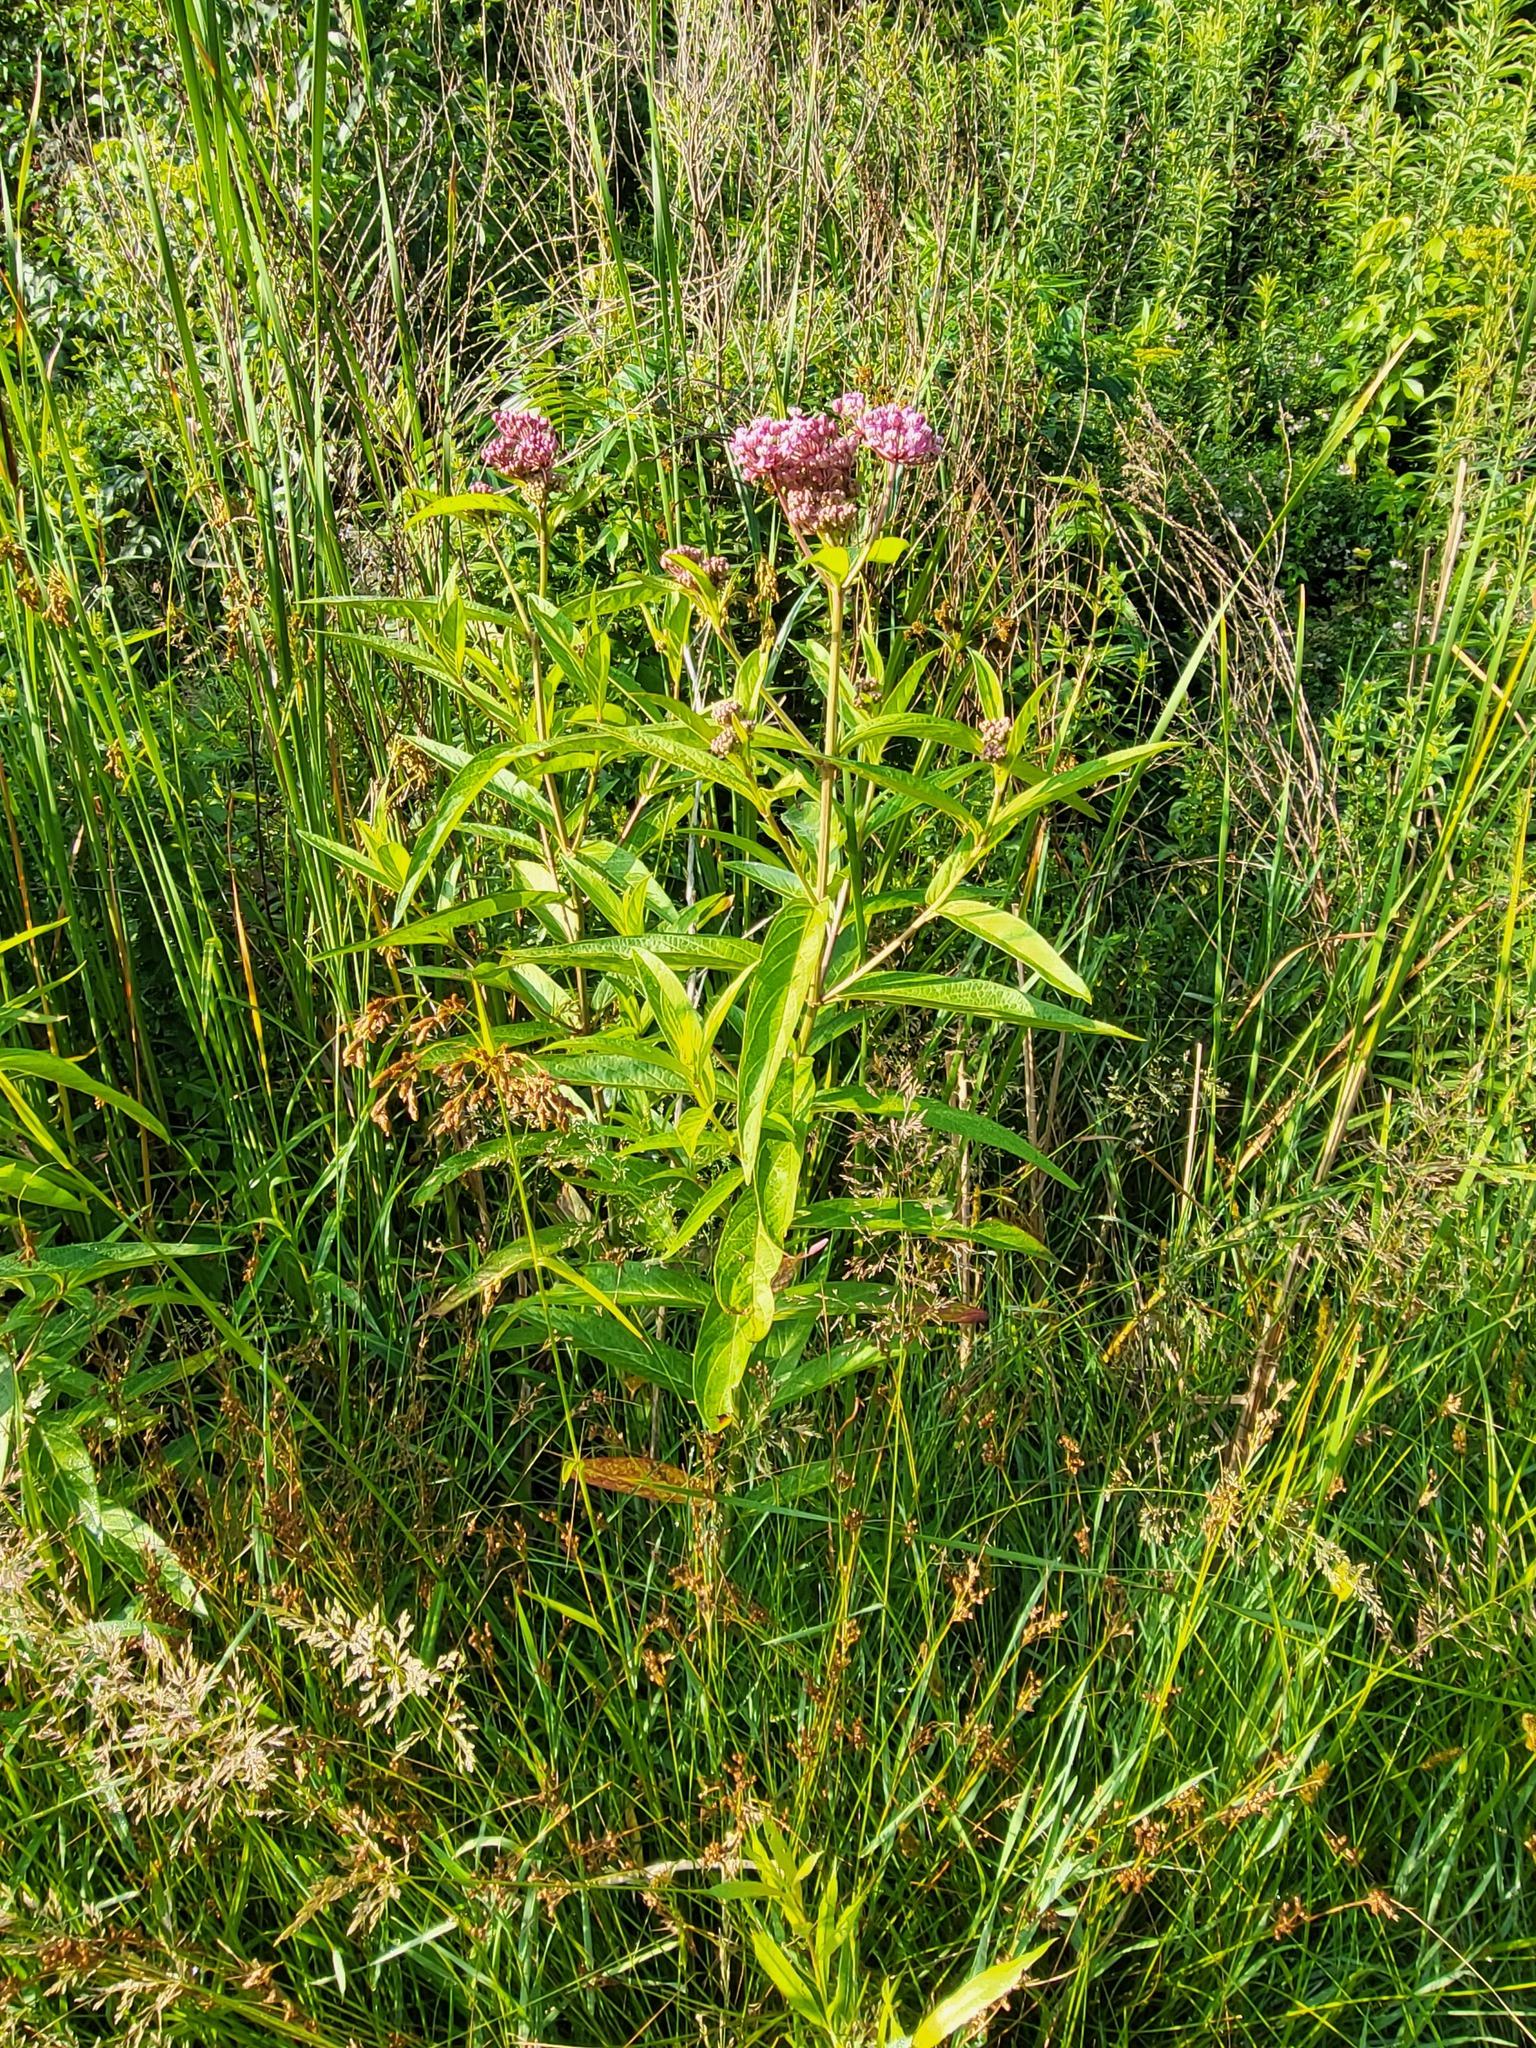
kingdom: Plantae
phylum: Tracheophyta
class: Magnoliopsida
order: Gentianales
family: Apocynaceae
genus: Asclepias
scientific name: Asclepias incarnata
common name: Swamp milkweed
